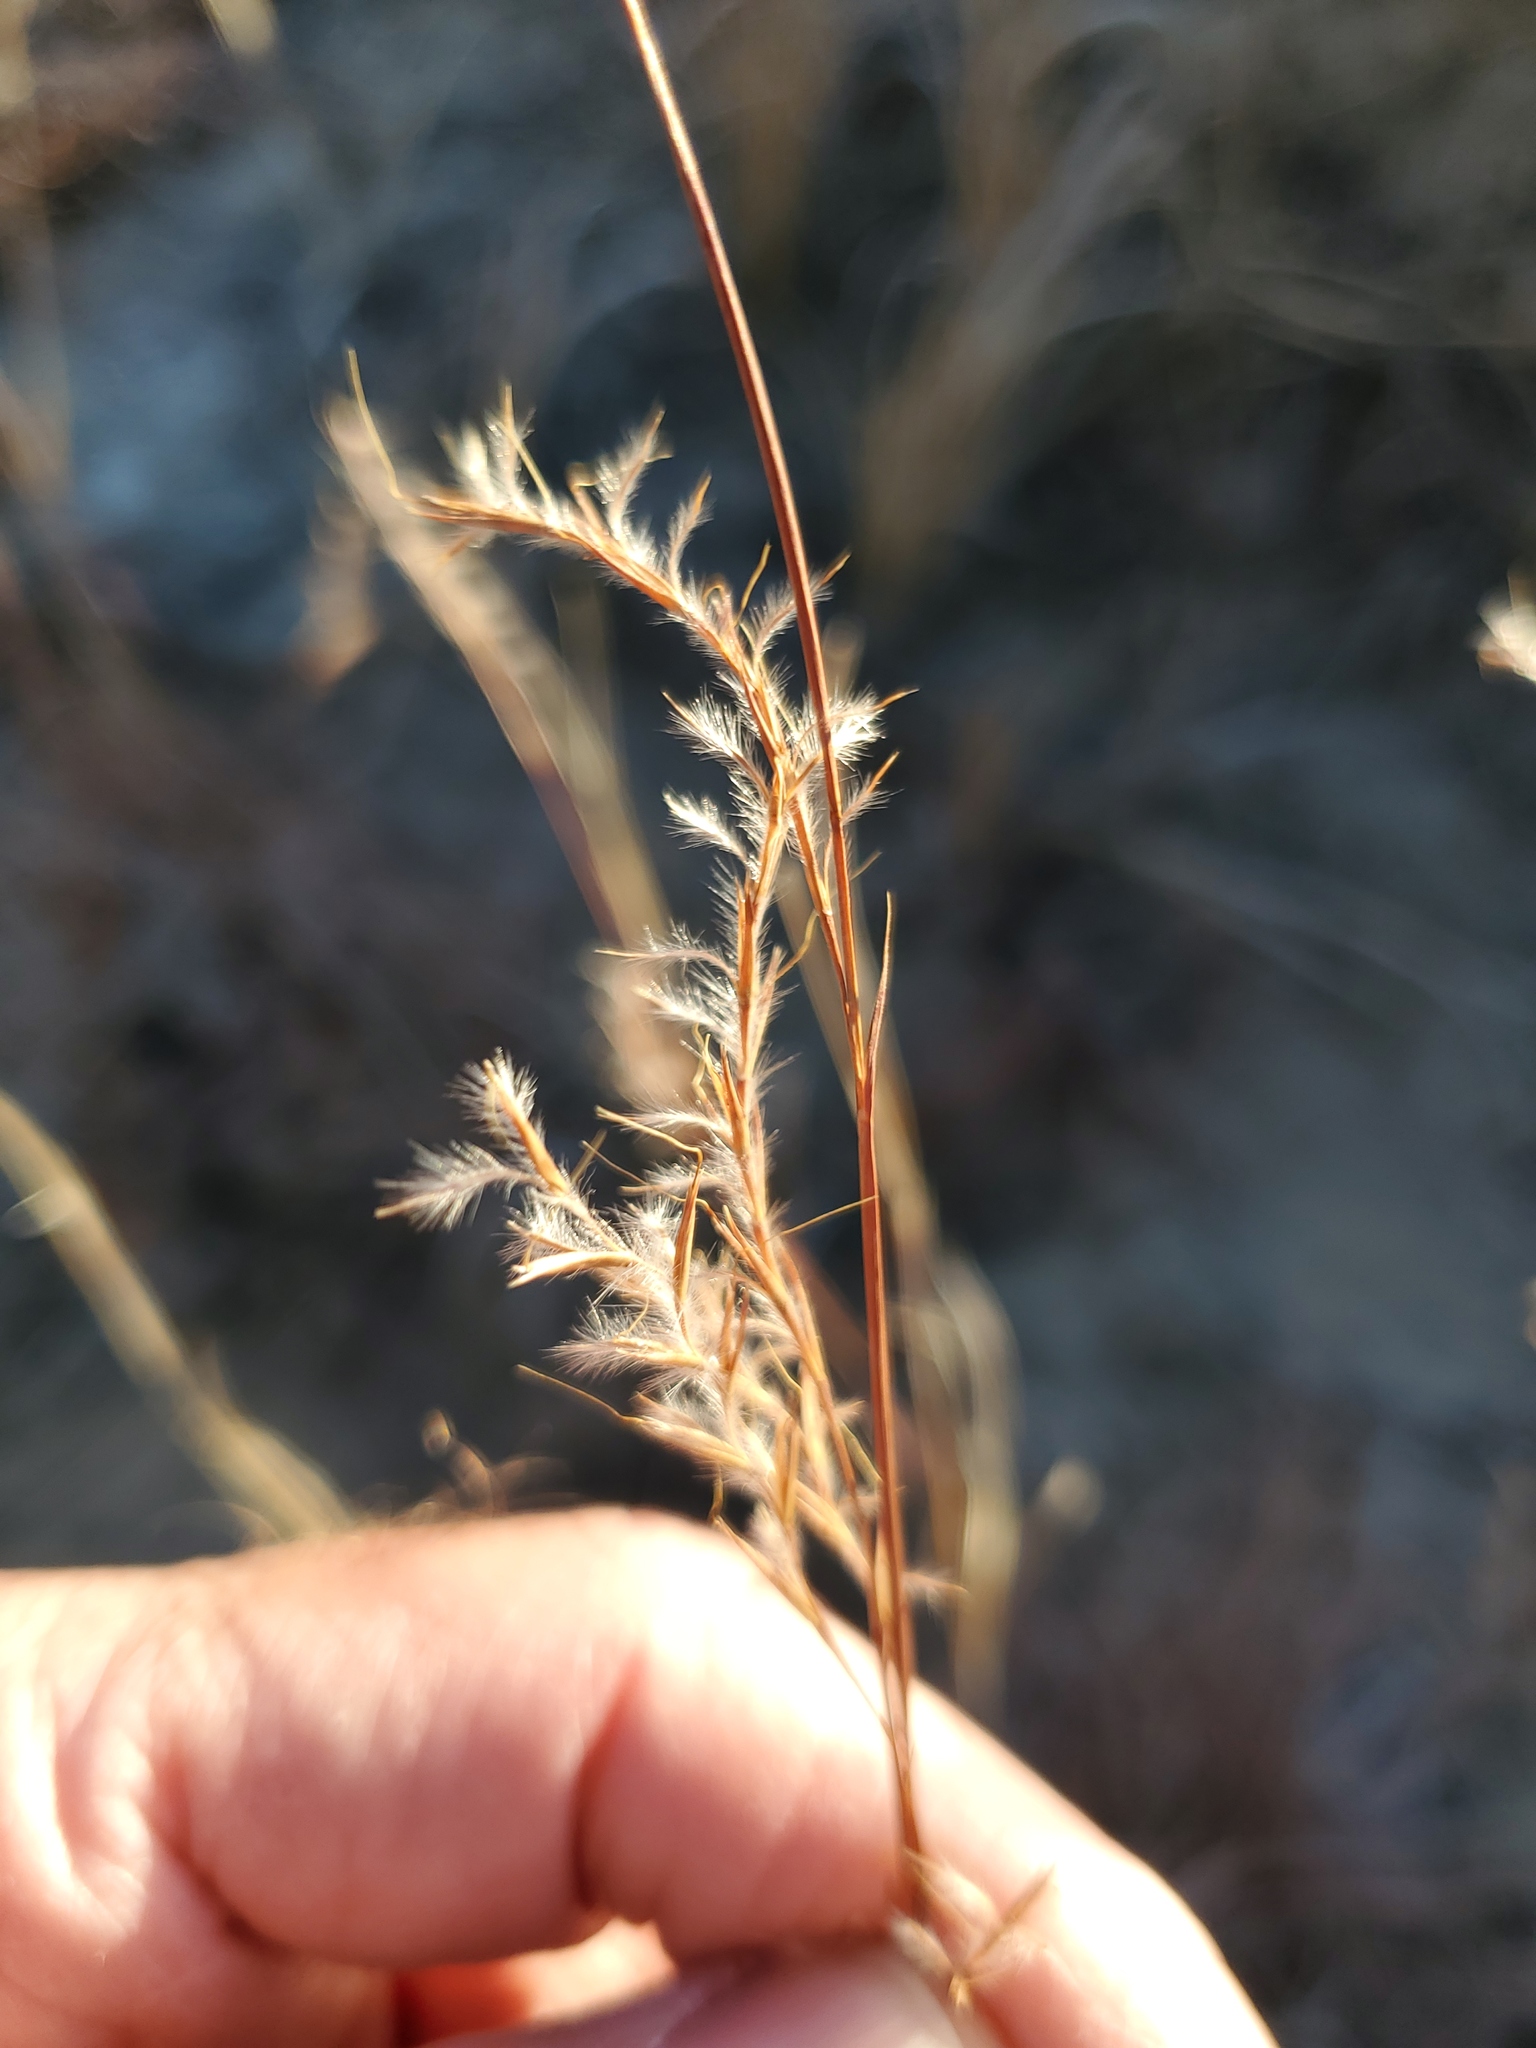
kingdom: Plantae
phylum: Tracheophyta
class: Liliopsida
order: Poales
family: Poaceae
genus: Schizachyrium
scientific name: Schizachyrium scoparium
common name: Little bluestem
